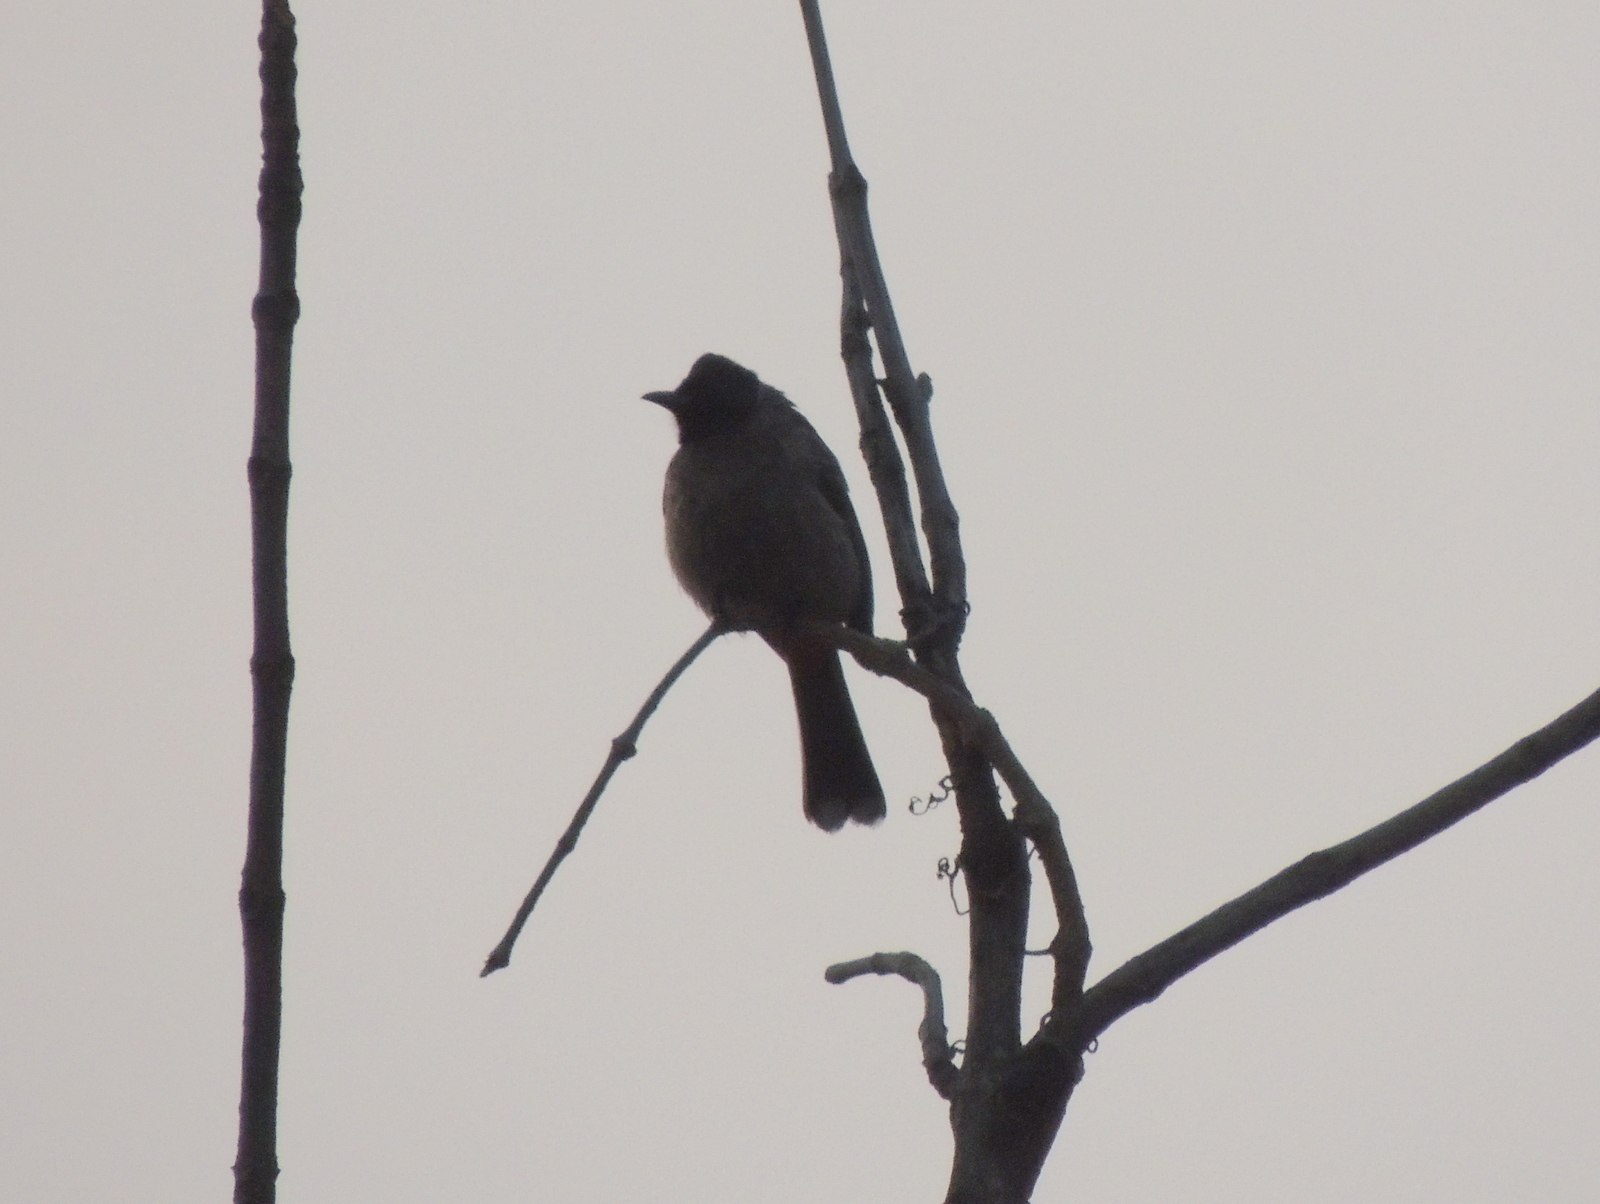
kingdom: Animalia
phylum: Chordata
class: Aves
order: Passeriformes
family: Pycnonotidae
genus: Pycnonotus
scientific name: Pycnonotus cafer
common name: Red-vented bulbul
